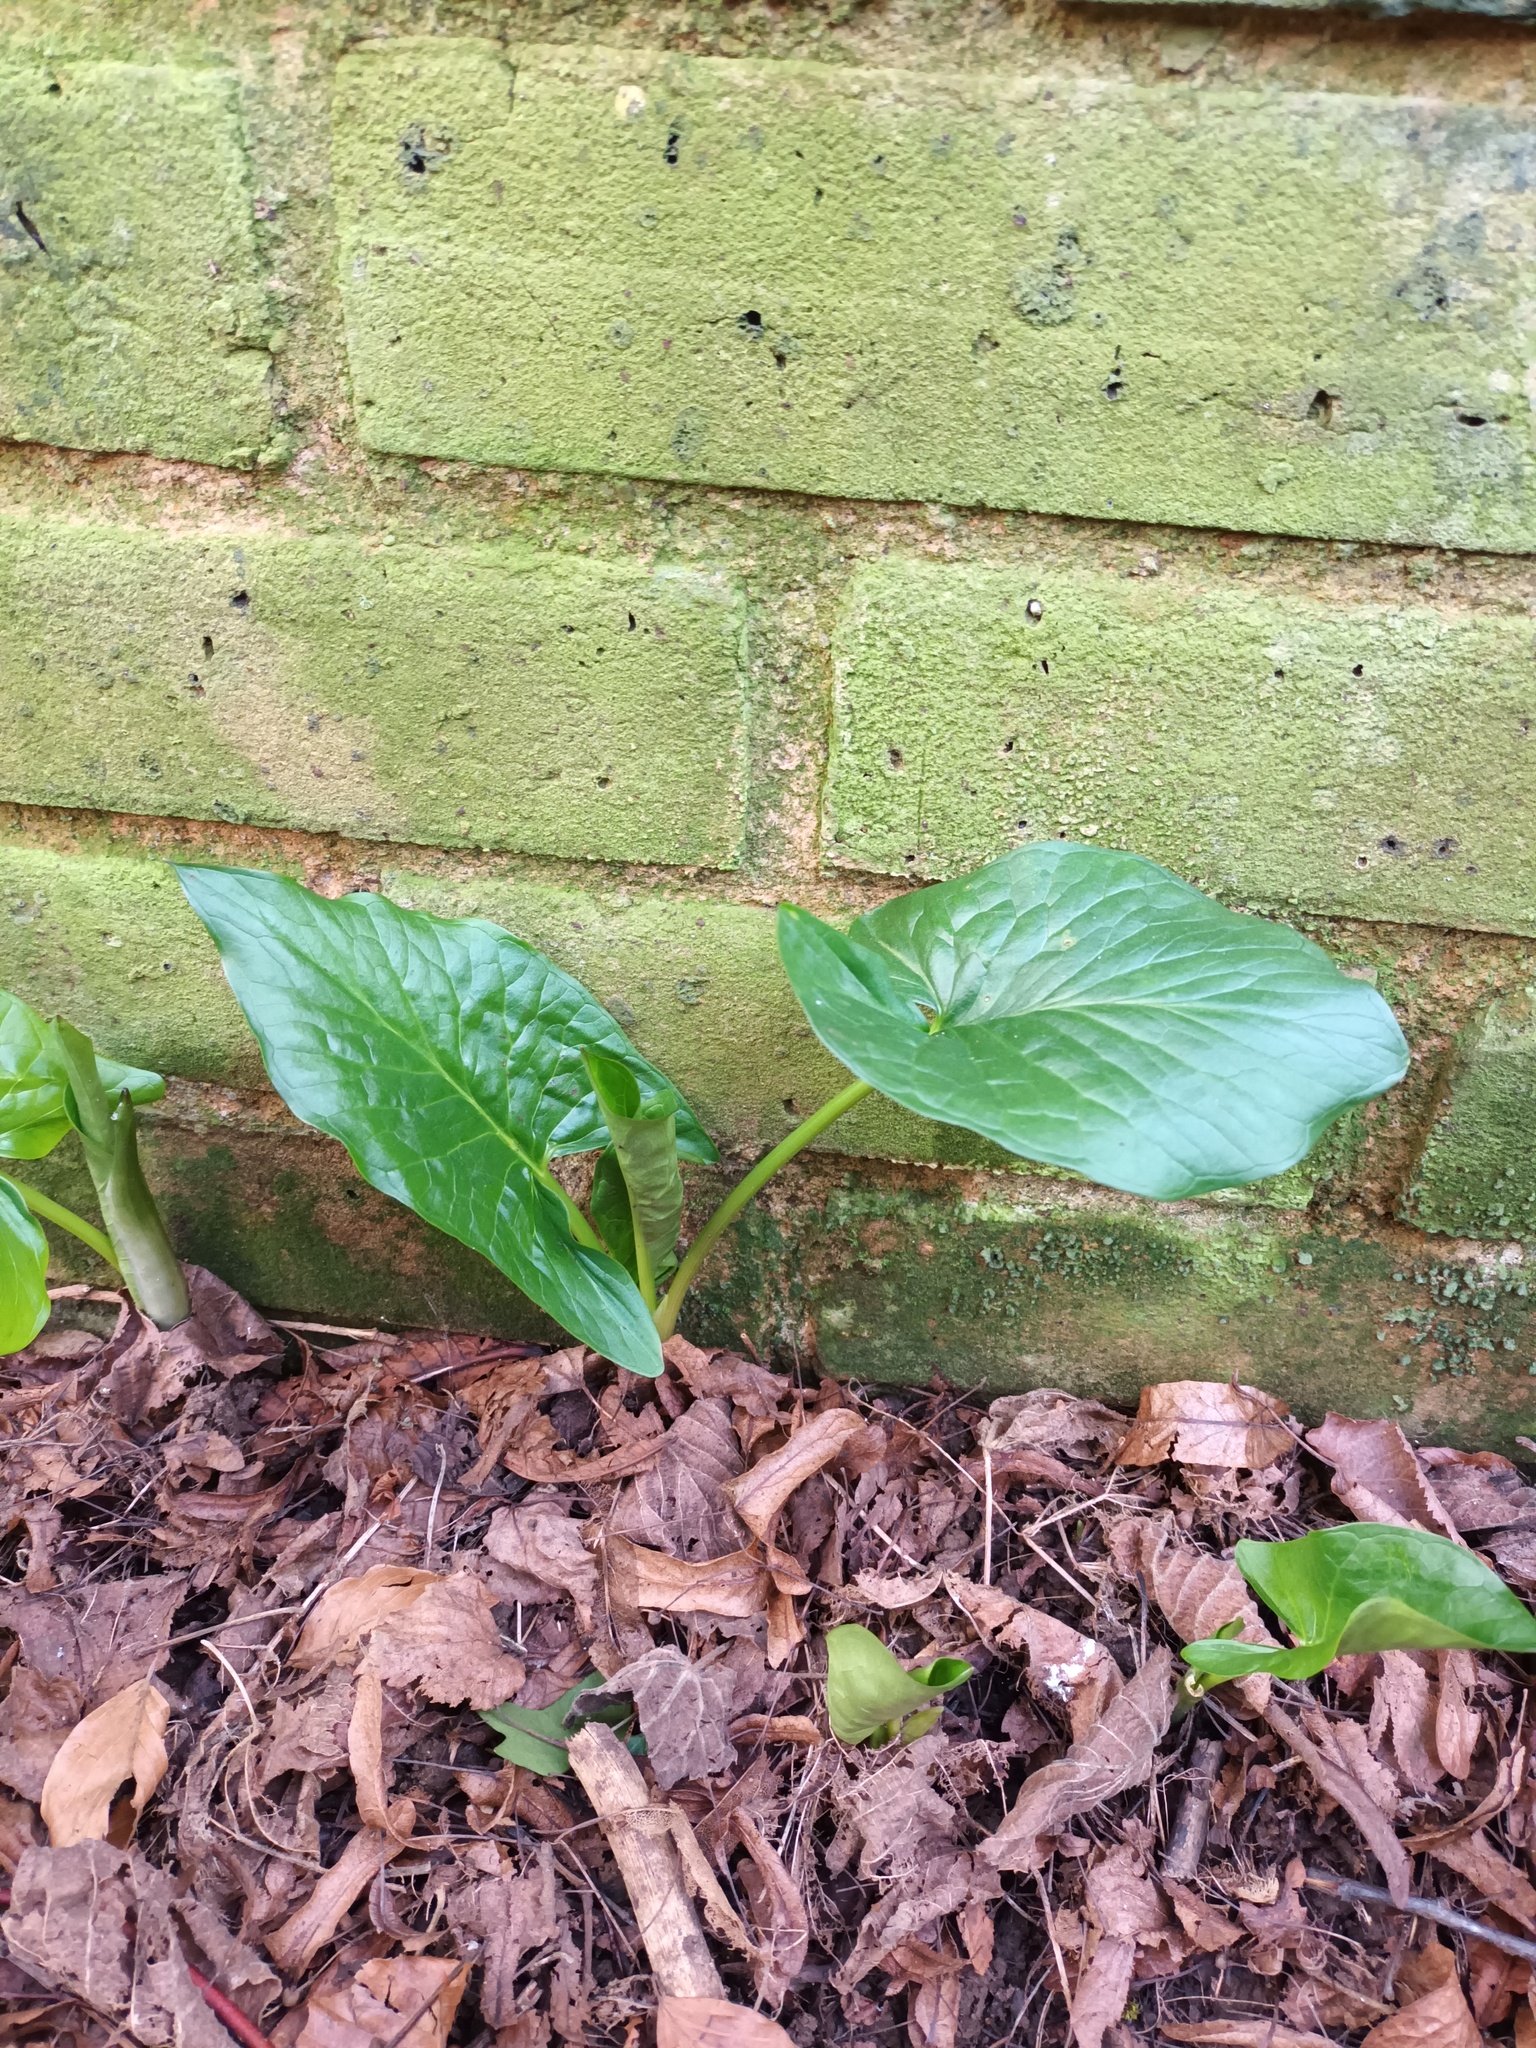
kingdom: Plantae
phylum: Tracheophyta
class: Liliopsida
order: Alismatales
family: Araceae
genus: Arum
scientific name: Arum maculatum
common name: Lords-and-ladies
